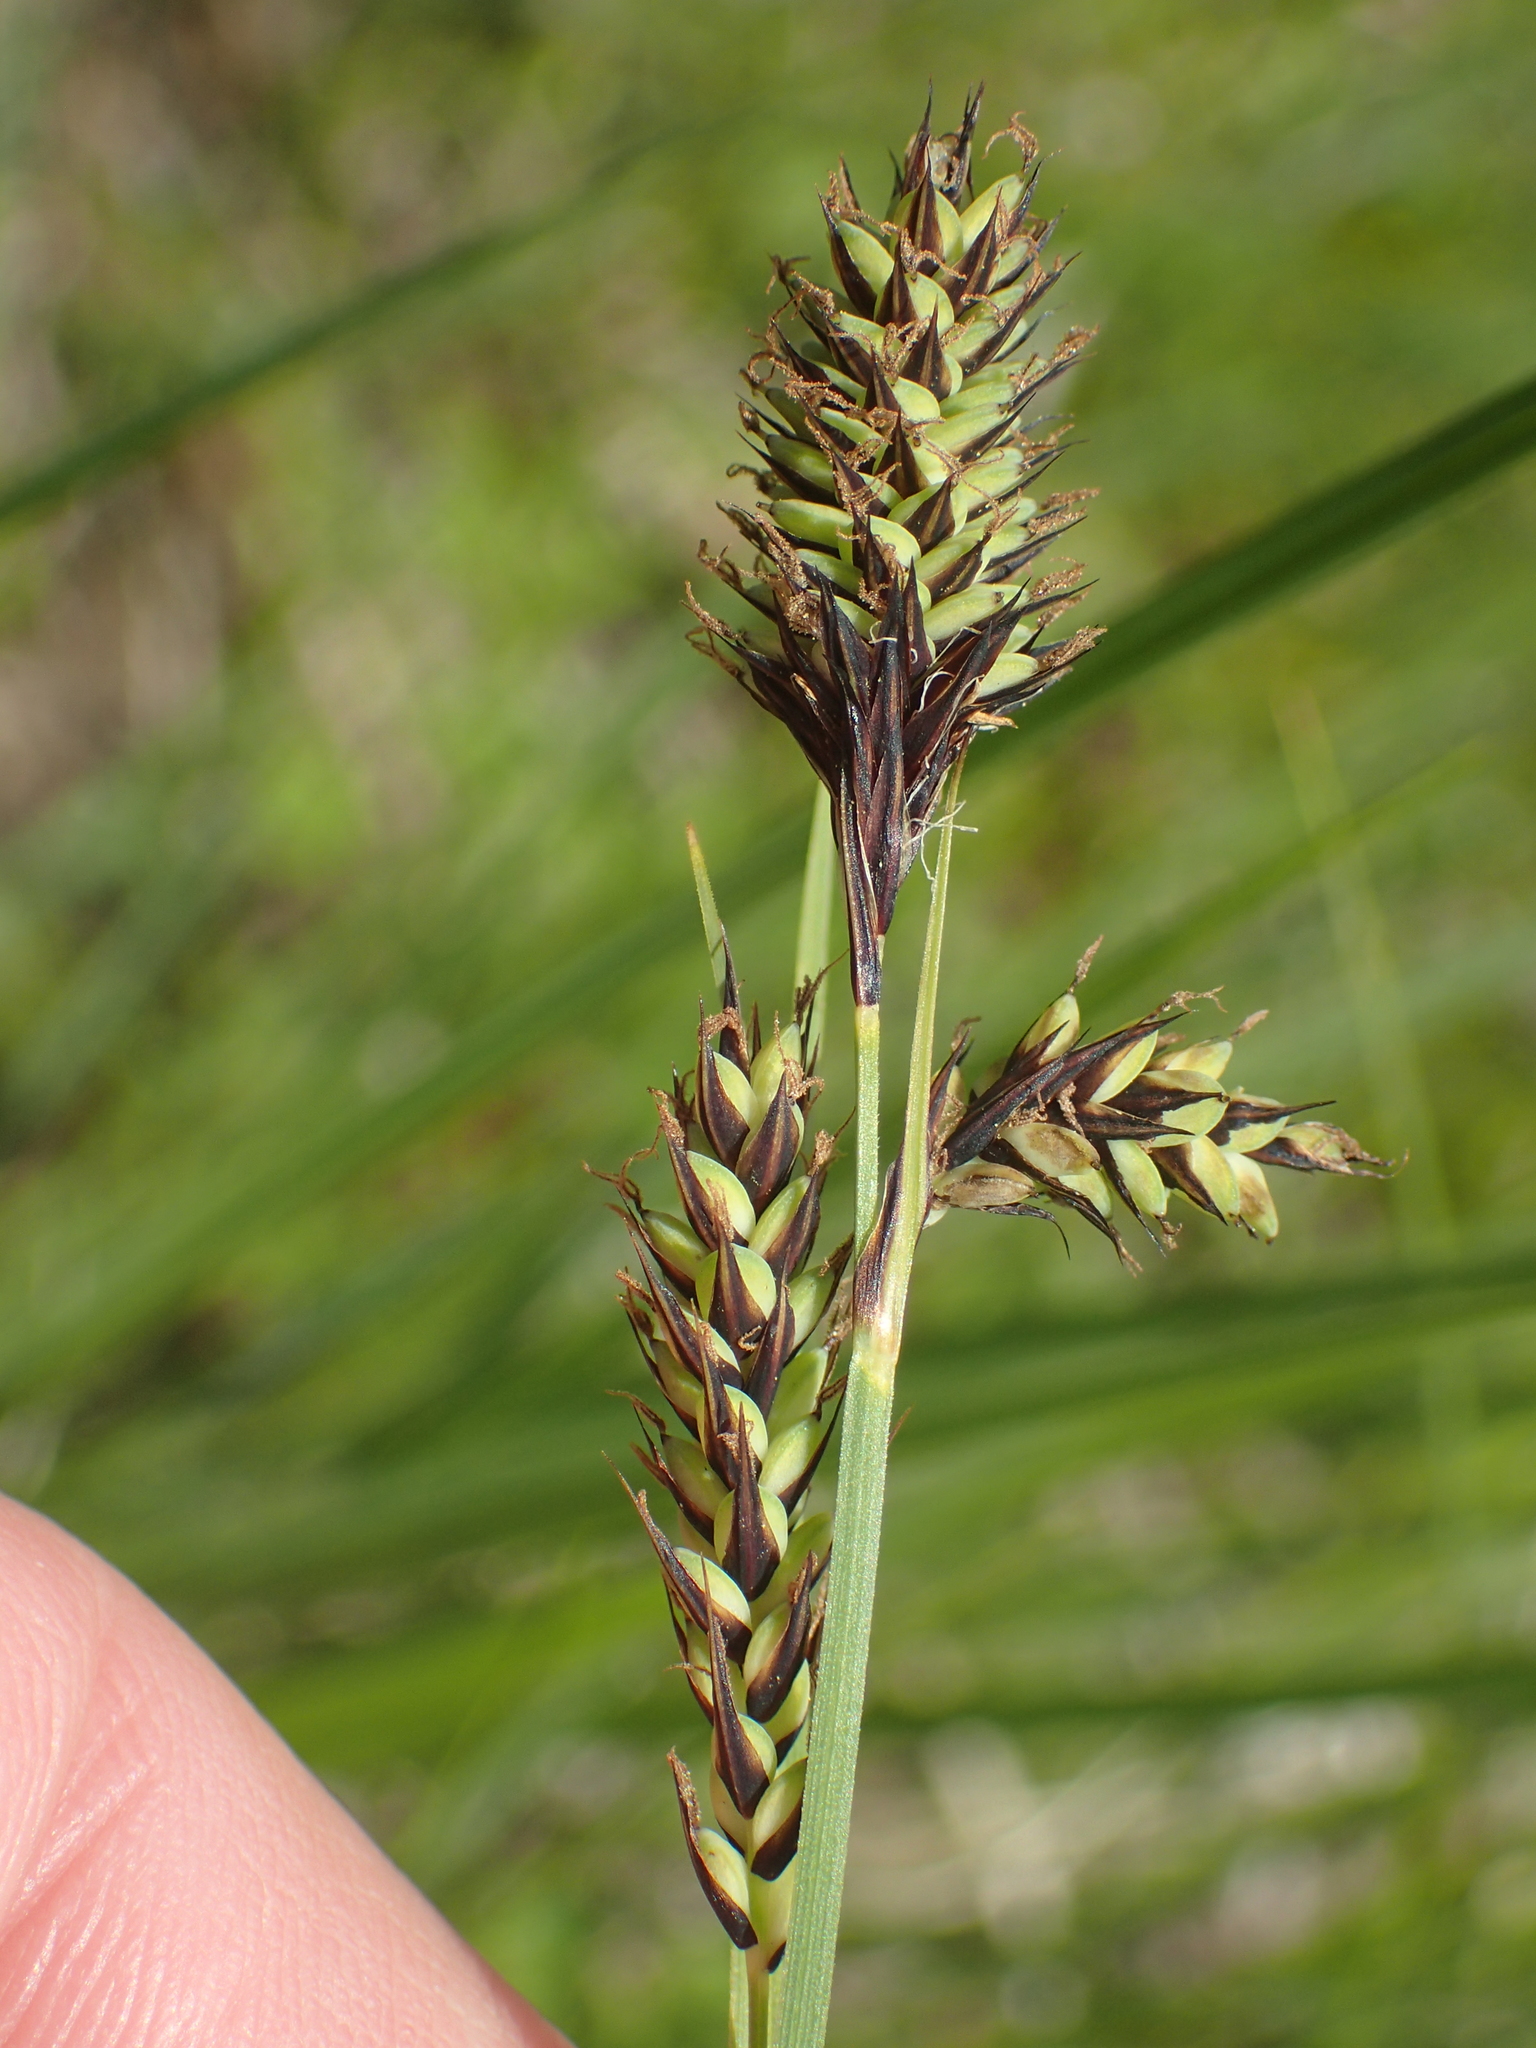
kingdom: Plantae
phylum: Tracheophyta
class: Liliopsida
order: Poales
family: Cyperaceae
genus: Carex
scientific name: Carex buxbaumii
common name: Club sedge
